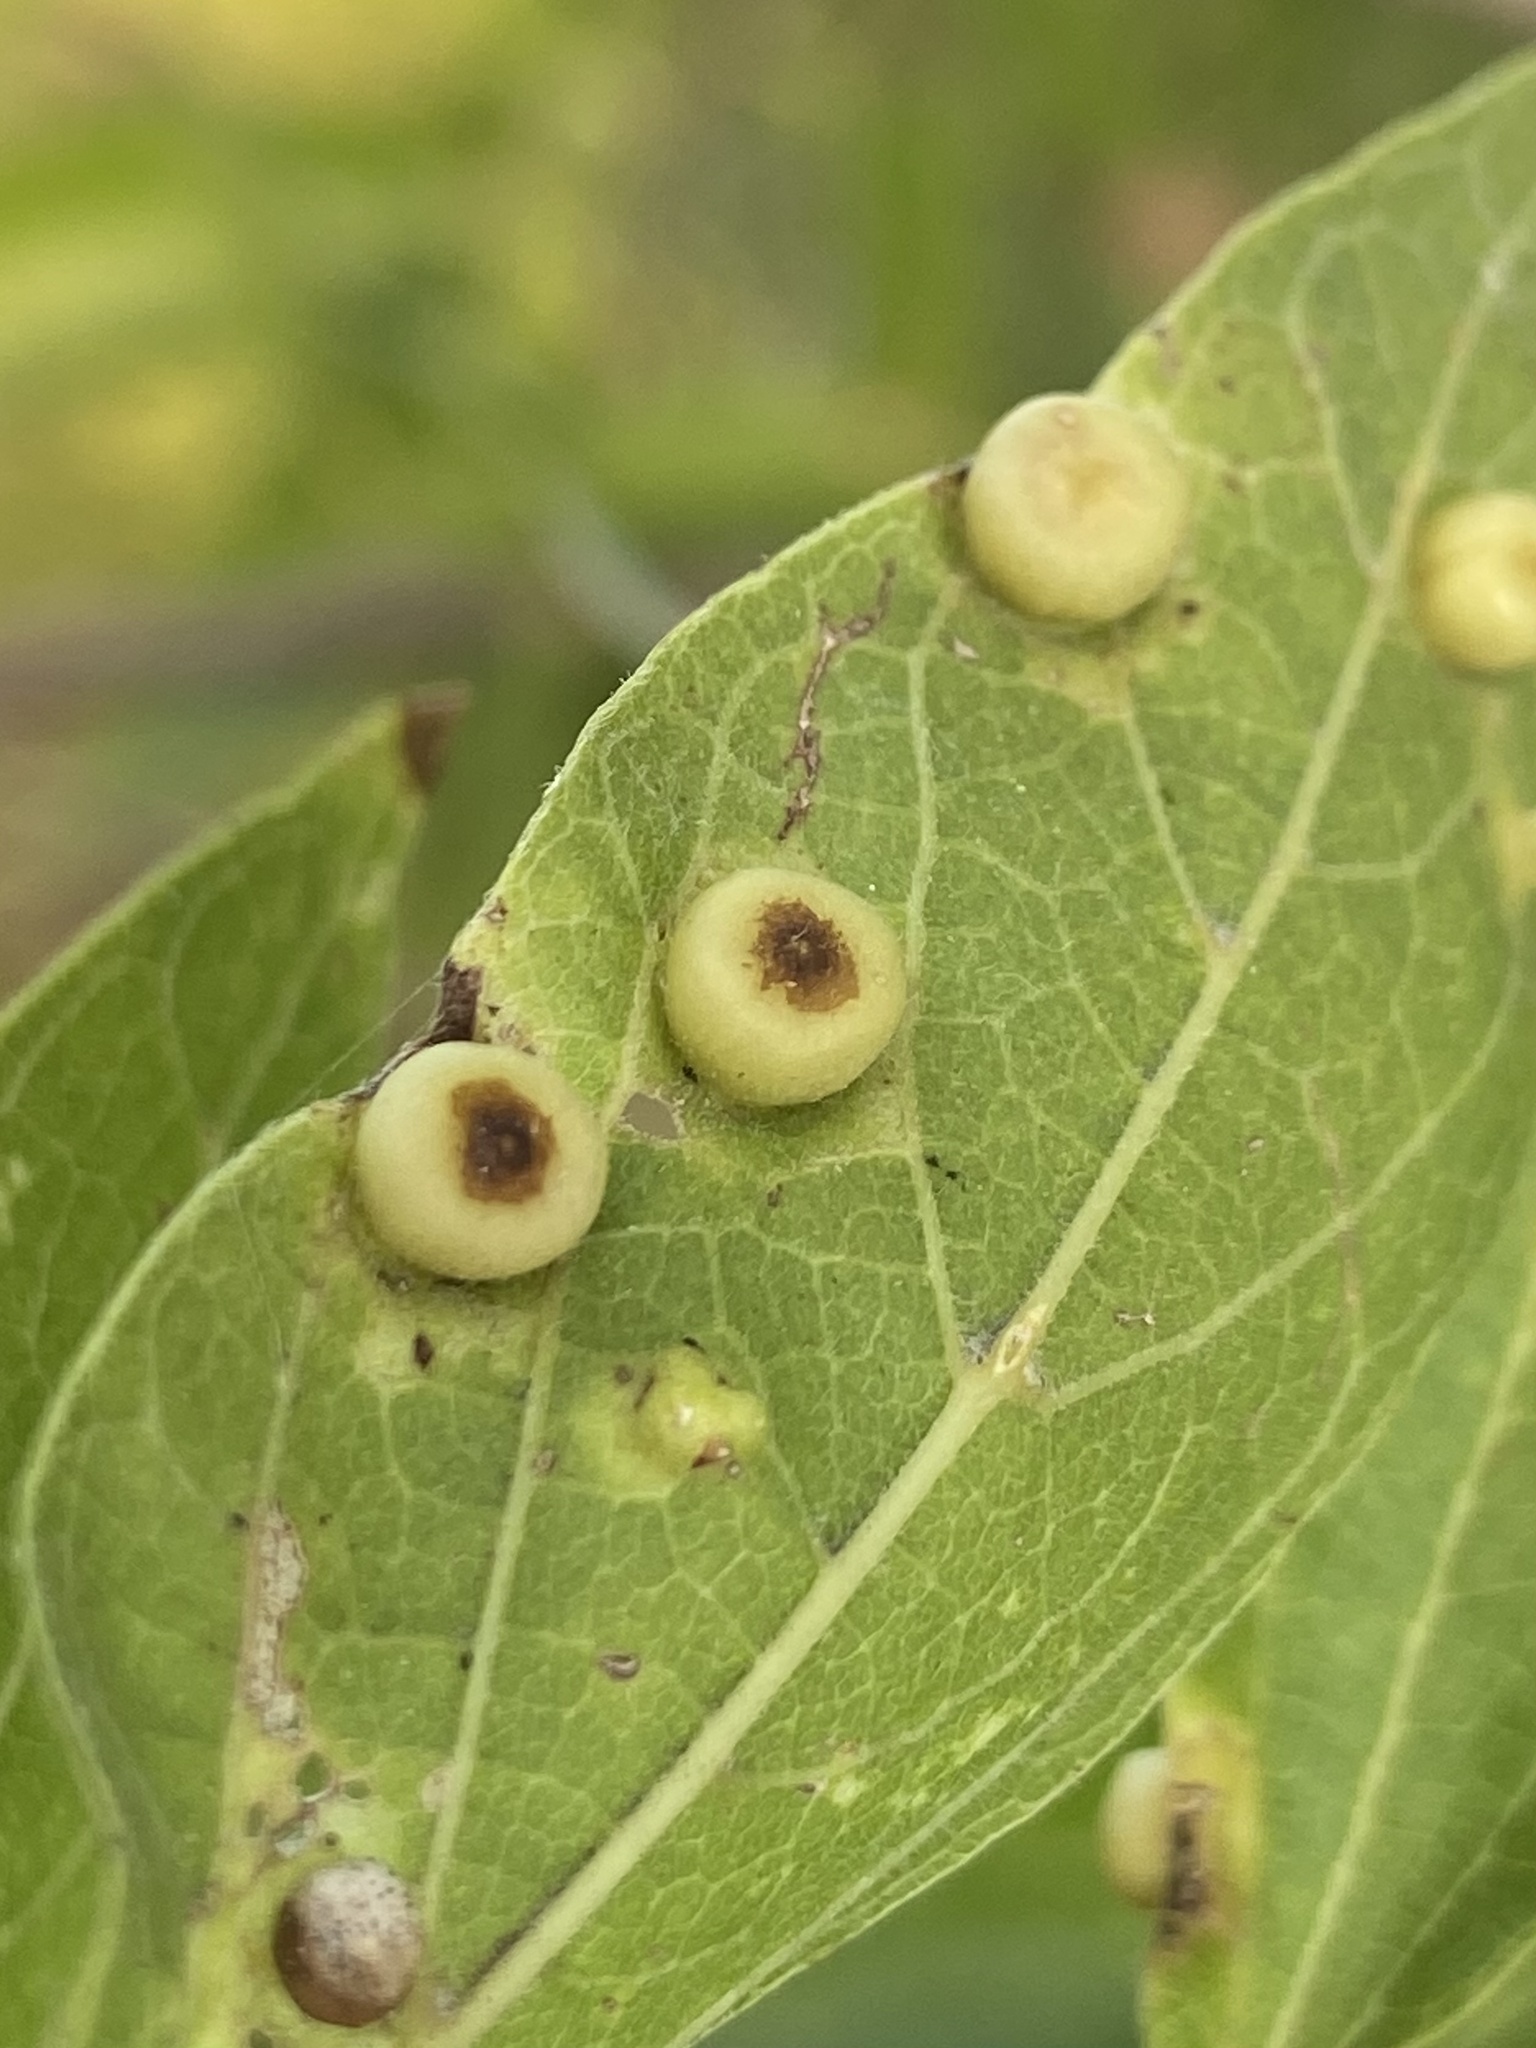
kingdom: Animalia
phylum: Arthropoda
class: Insecta
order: Hemiptera
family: Aphalaridae
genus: Pachypsylla
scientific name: Pachypsylla celtidismamma
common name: Hackberry nipplegall psyllid
